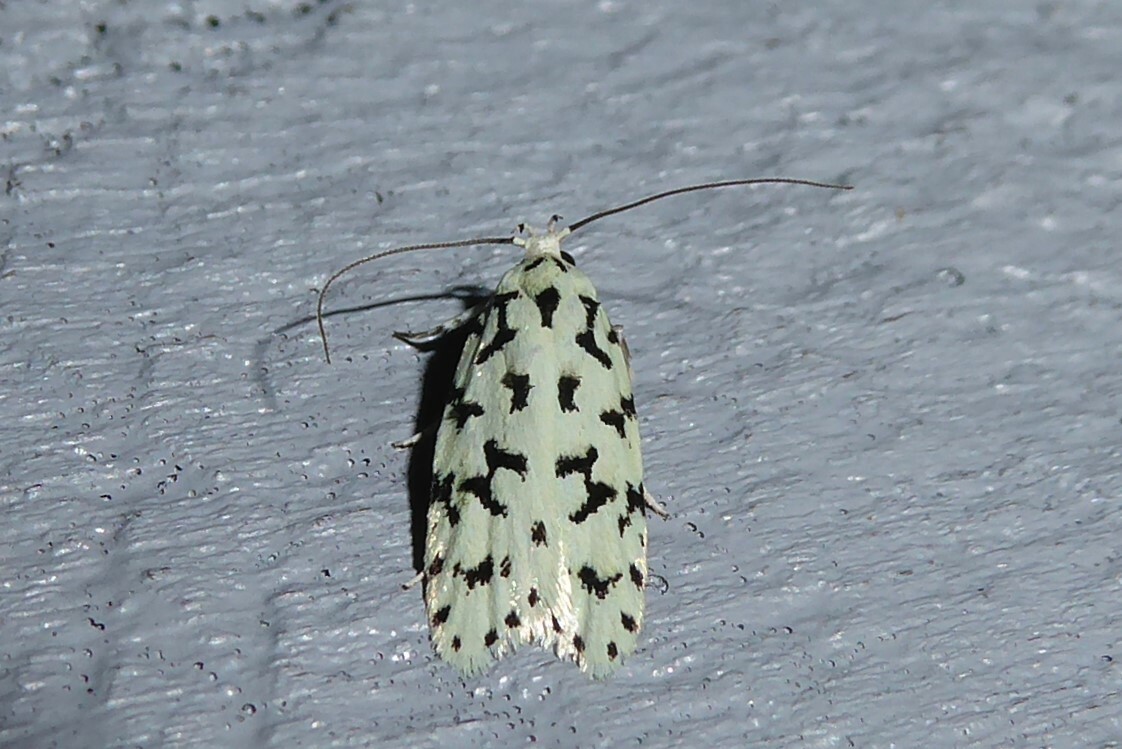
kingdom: Animalia
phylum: Arthropoda
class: Insecta
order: Lepidoptera
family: Oecophoridae
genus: Izatha
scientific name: Izatha huttoni
